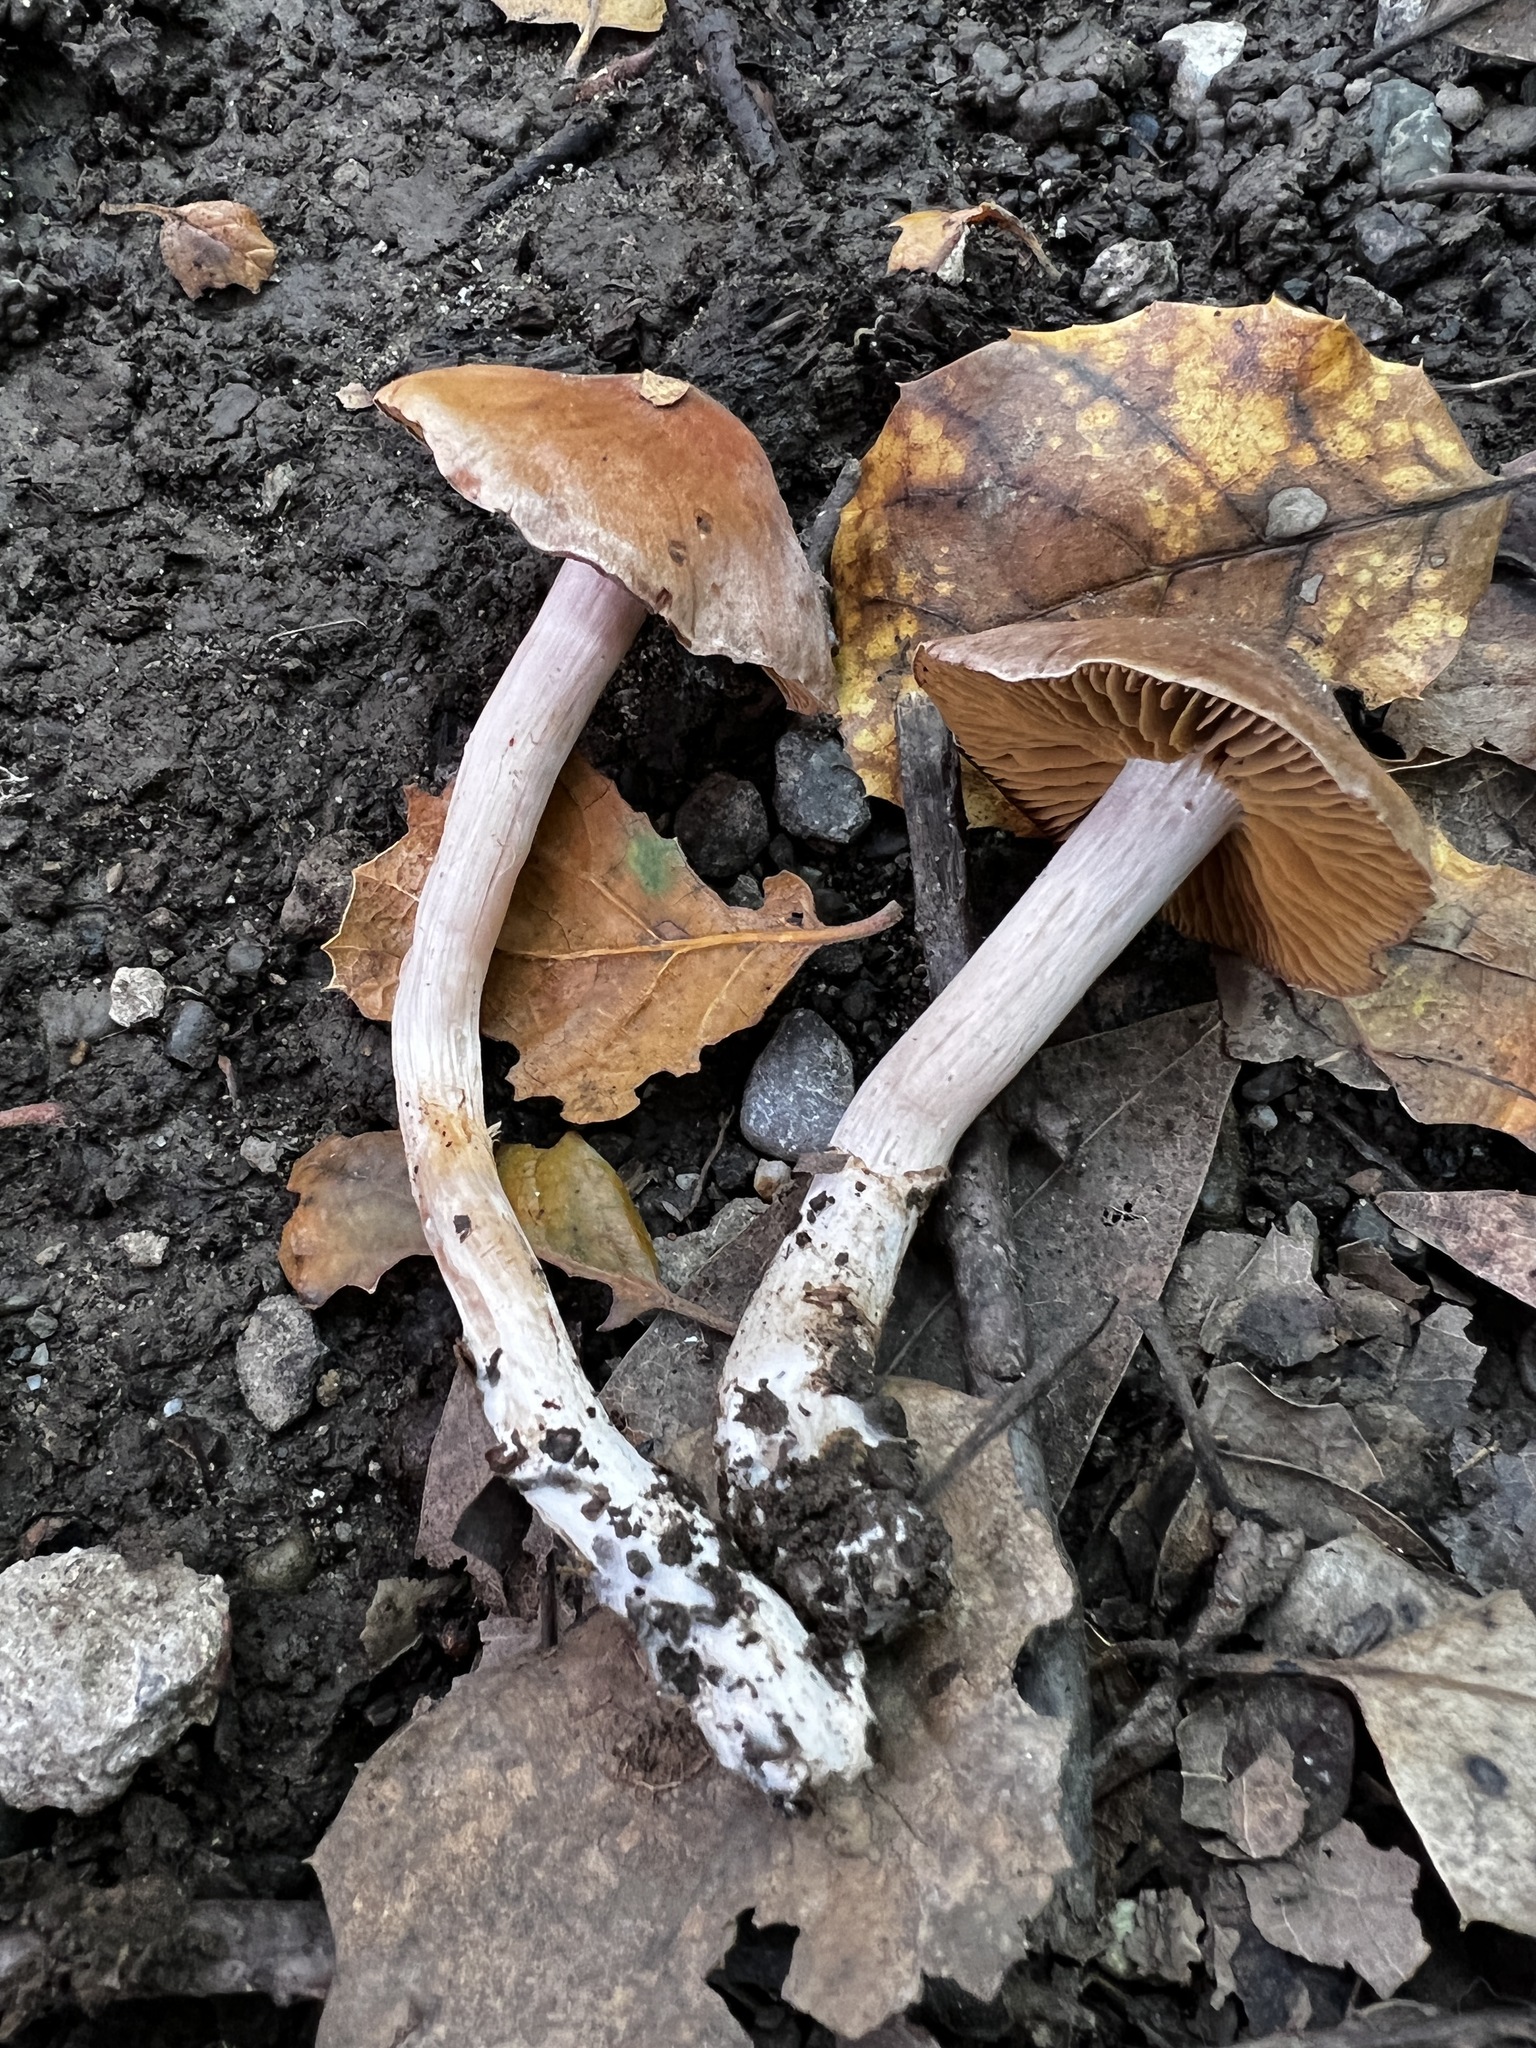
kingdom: Fungi
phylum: Basidiomycota
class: Agaricomycetes
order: Agaricales
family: Cortinariaceae
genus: Cortinarius
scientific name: Cortinarius ohlone
